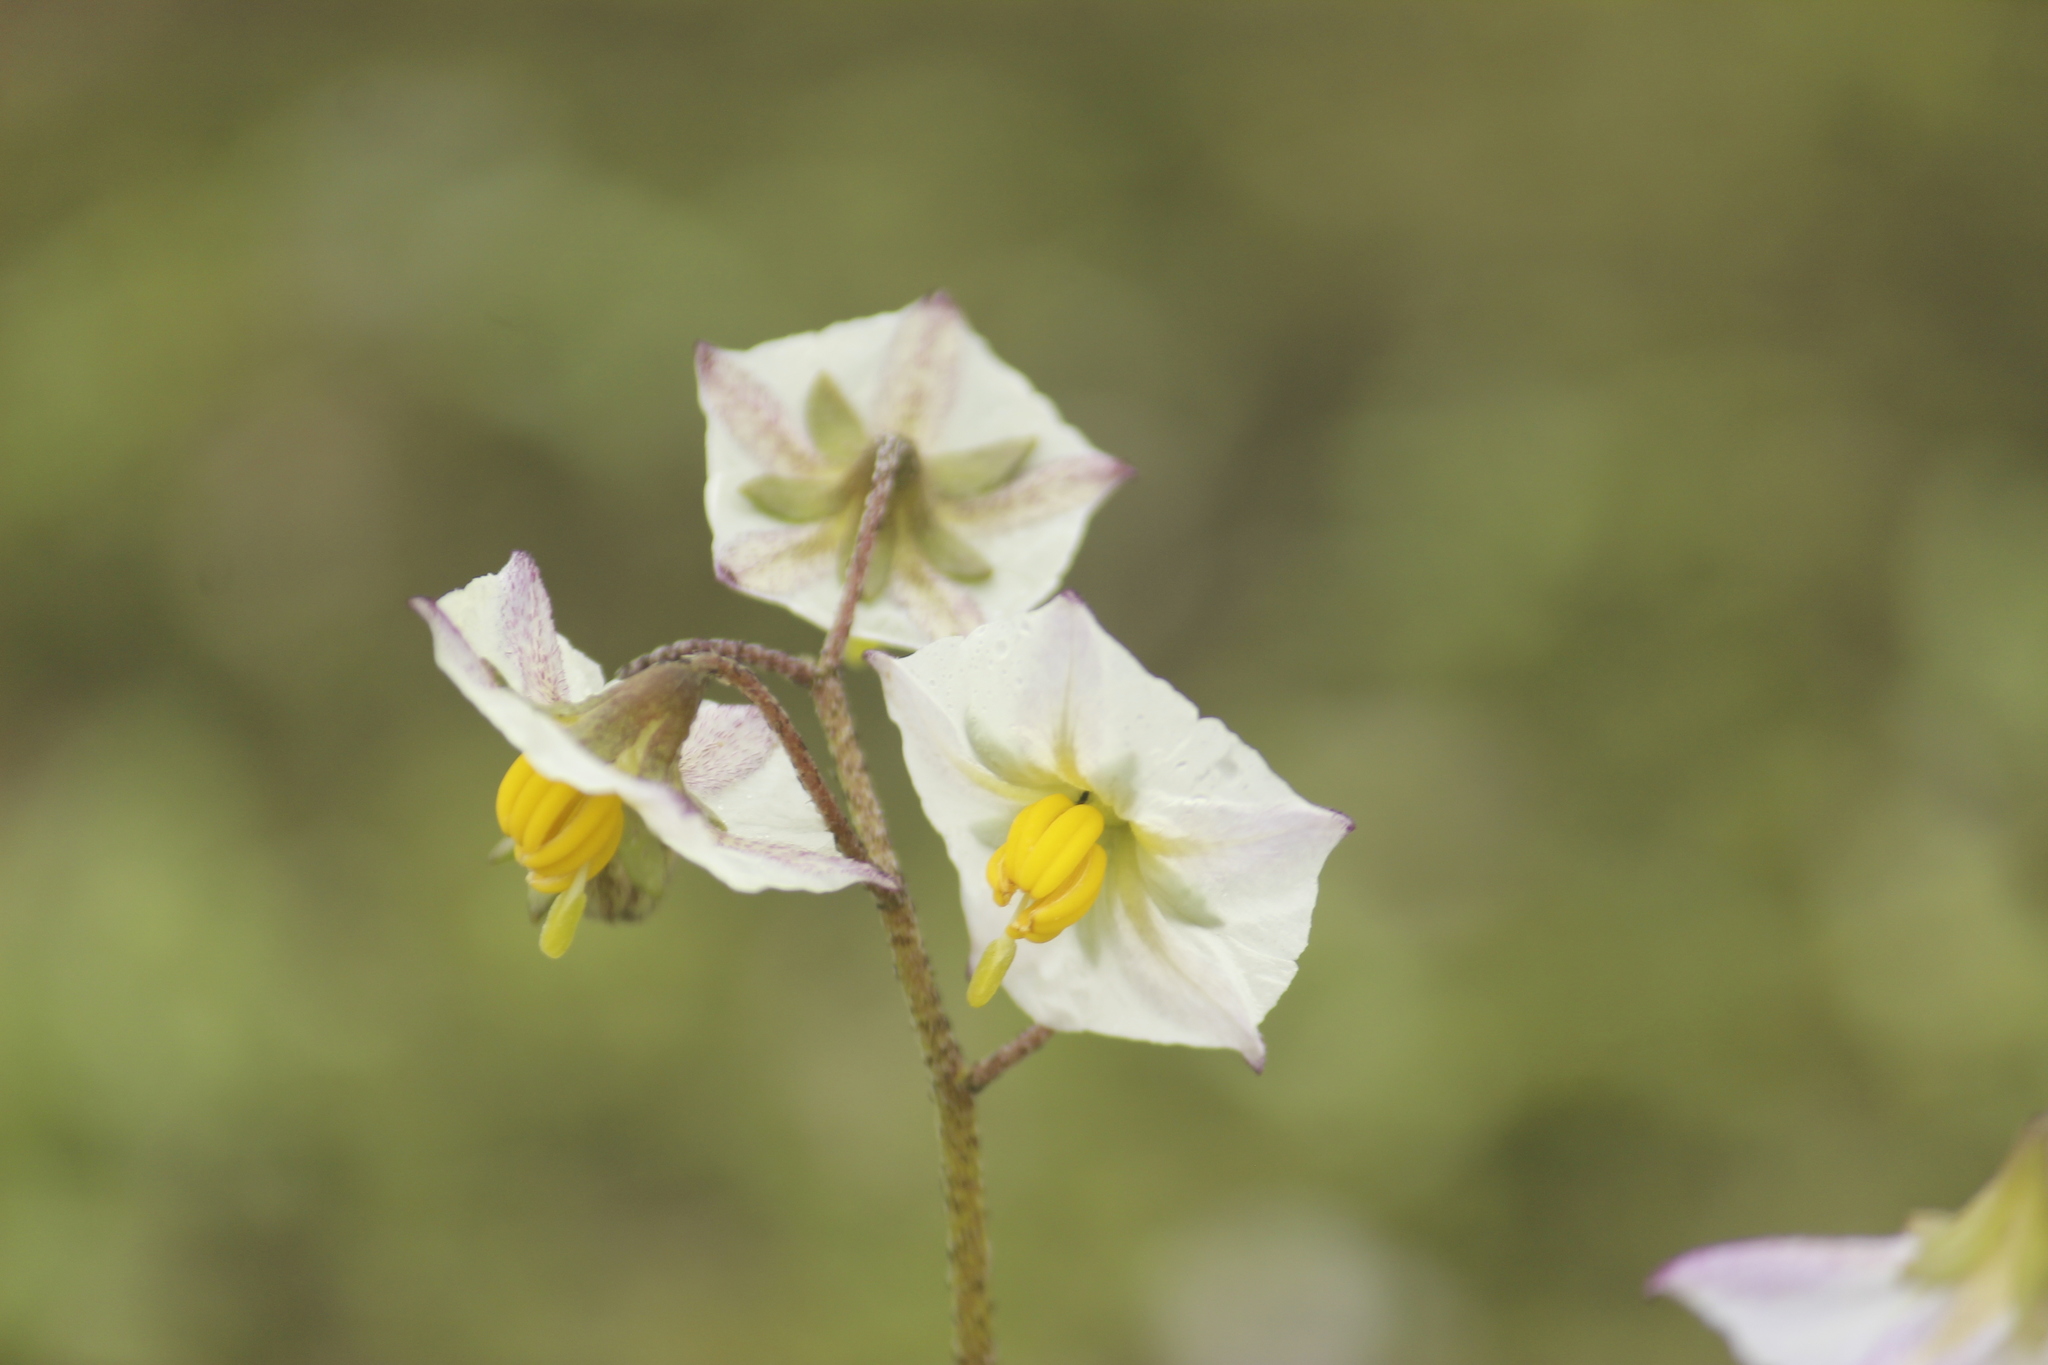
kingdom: Plantae
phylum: Tracheophyta
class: Magnoliopsida
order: Solanales
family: Solanaceae
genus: Solanum
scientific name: Solanum montanum
